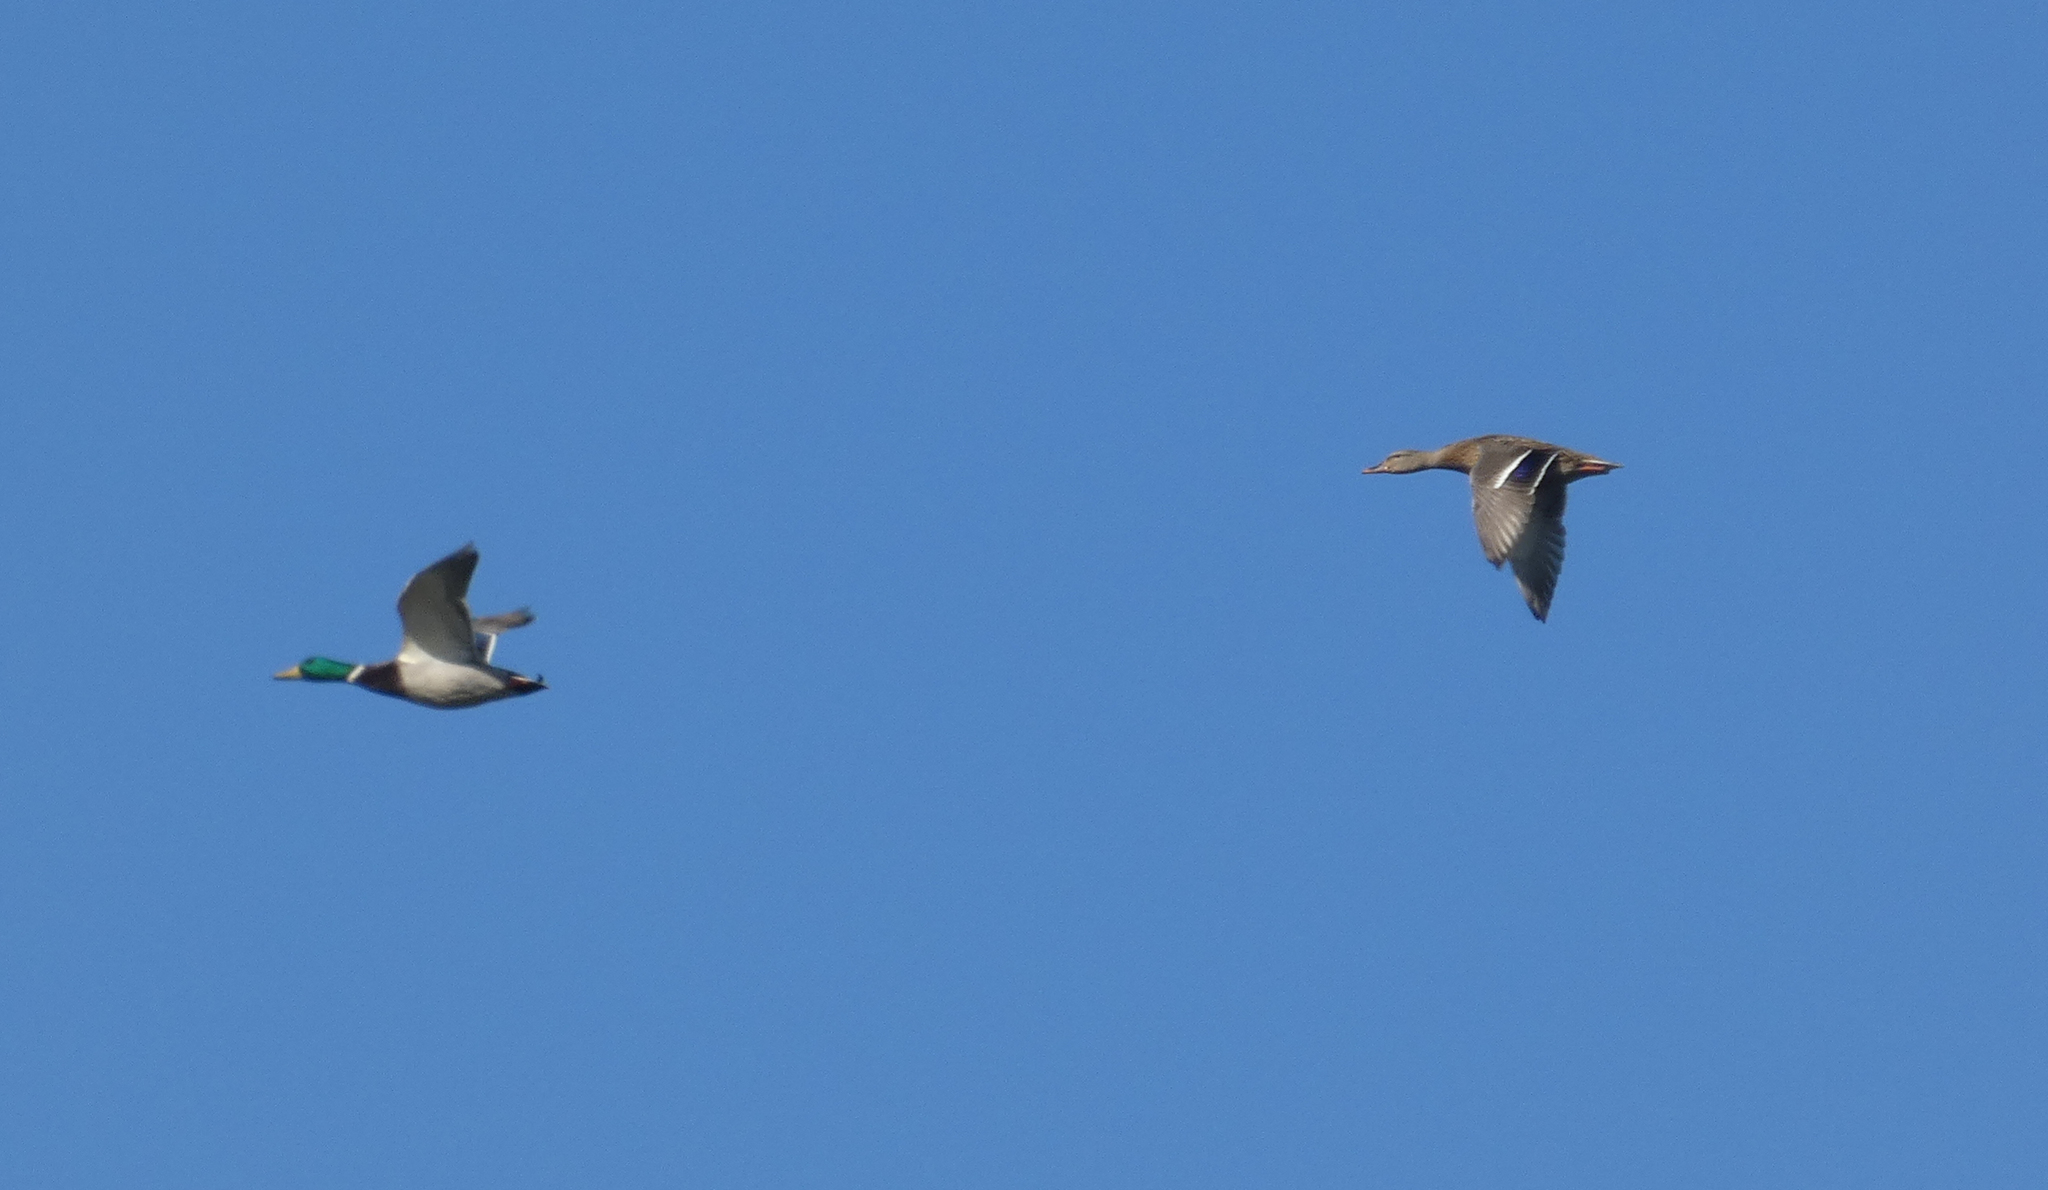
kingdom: Animalia
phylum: Chordata
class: Aves
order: Anseriformes
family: Anatidae
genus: Anas
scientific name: Anas platyrhynchos
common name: Mallard
